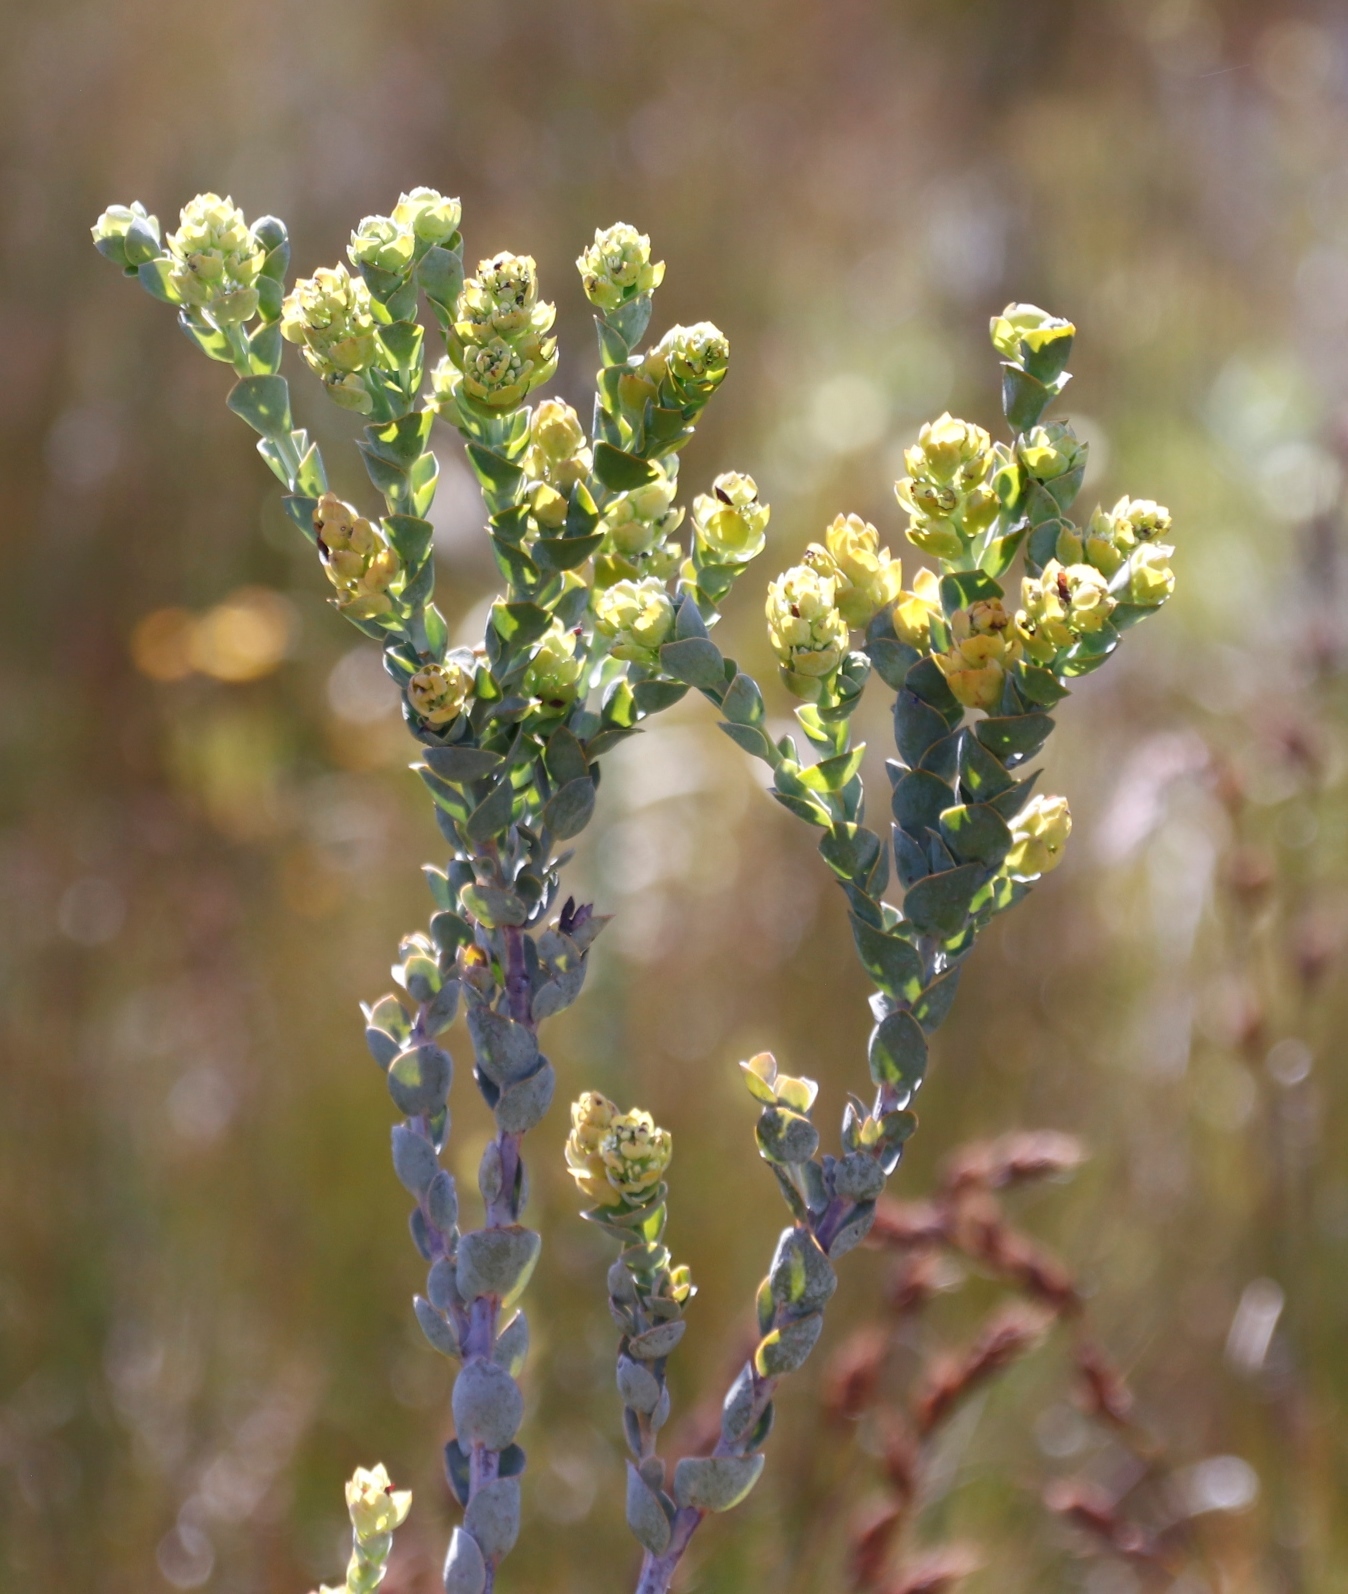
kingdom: Plantae
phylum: Tracheophyta
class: Magnoliopsida
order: Santalales
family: Thesiaceae
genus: Thesium
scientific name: Thesium euphorbioides
